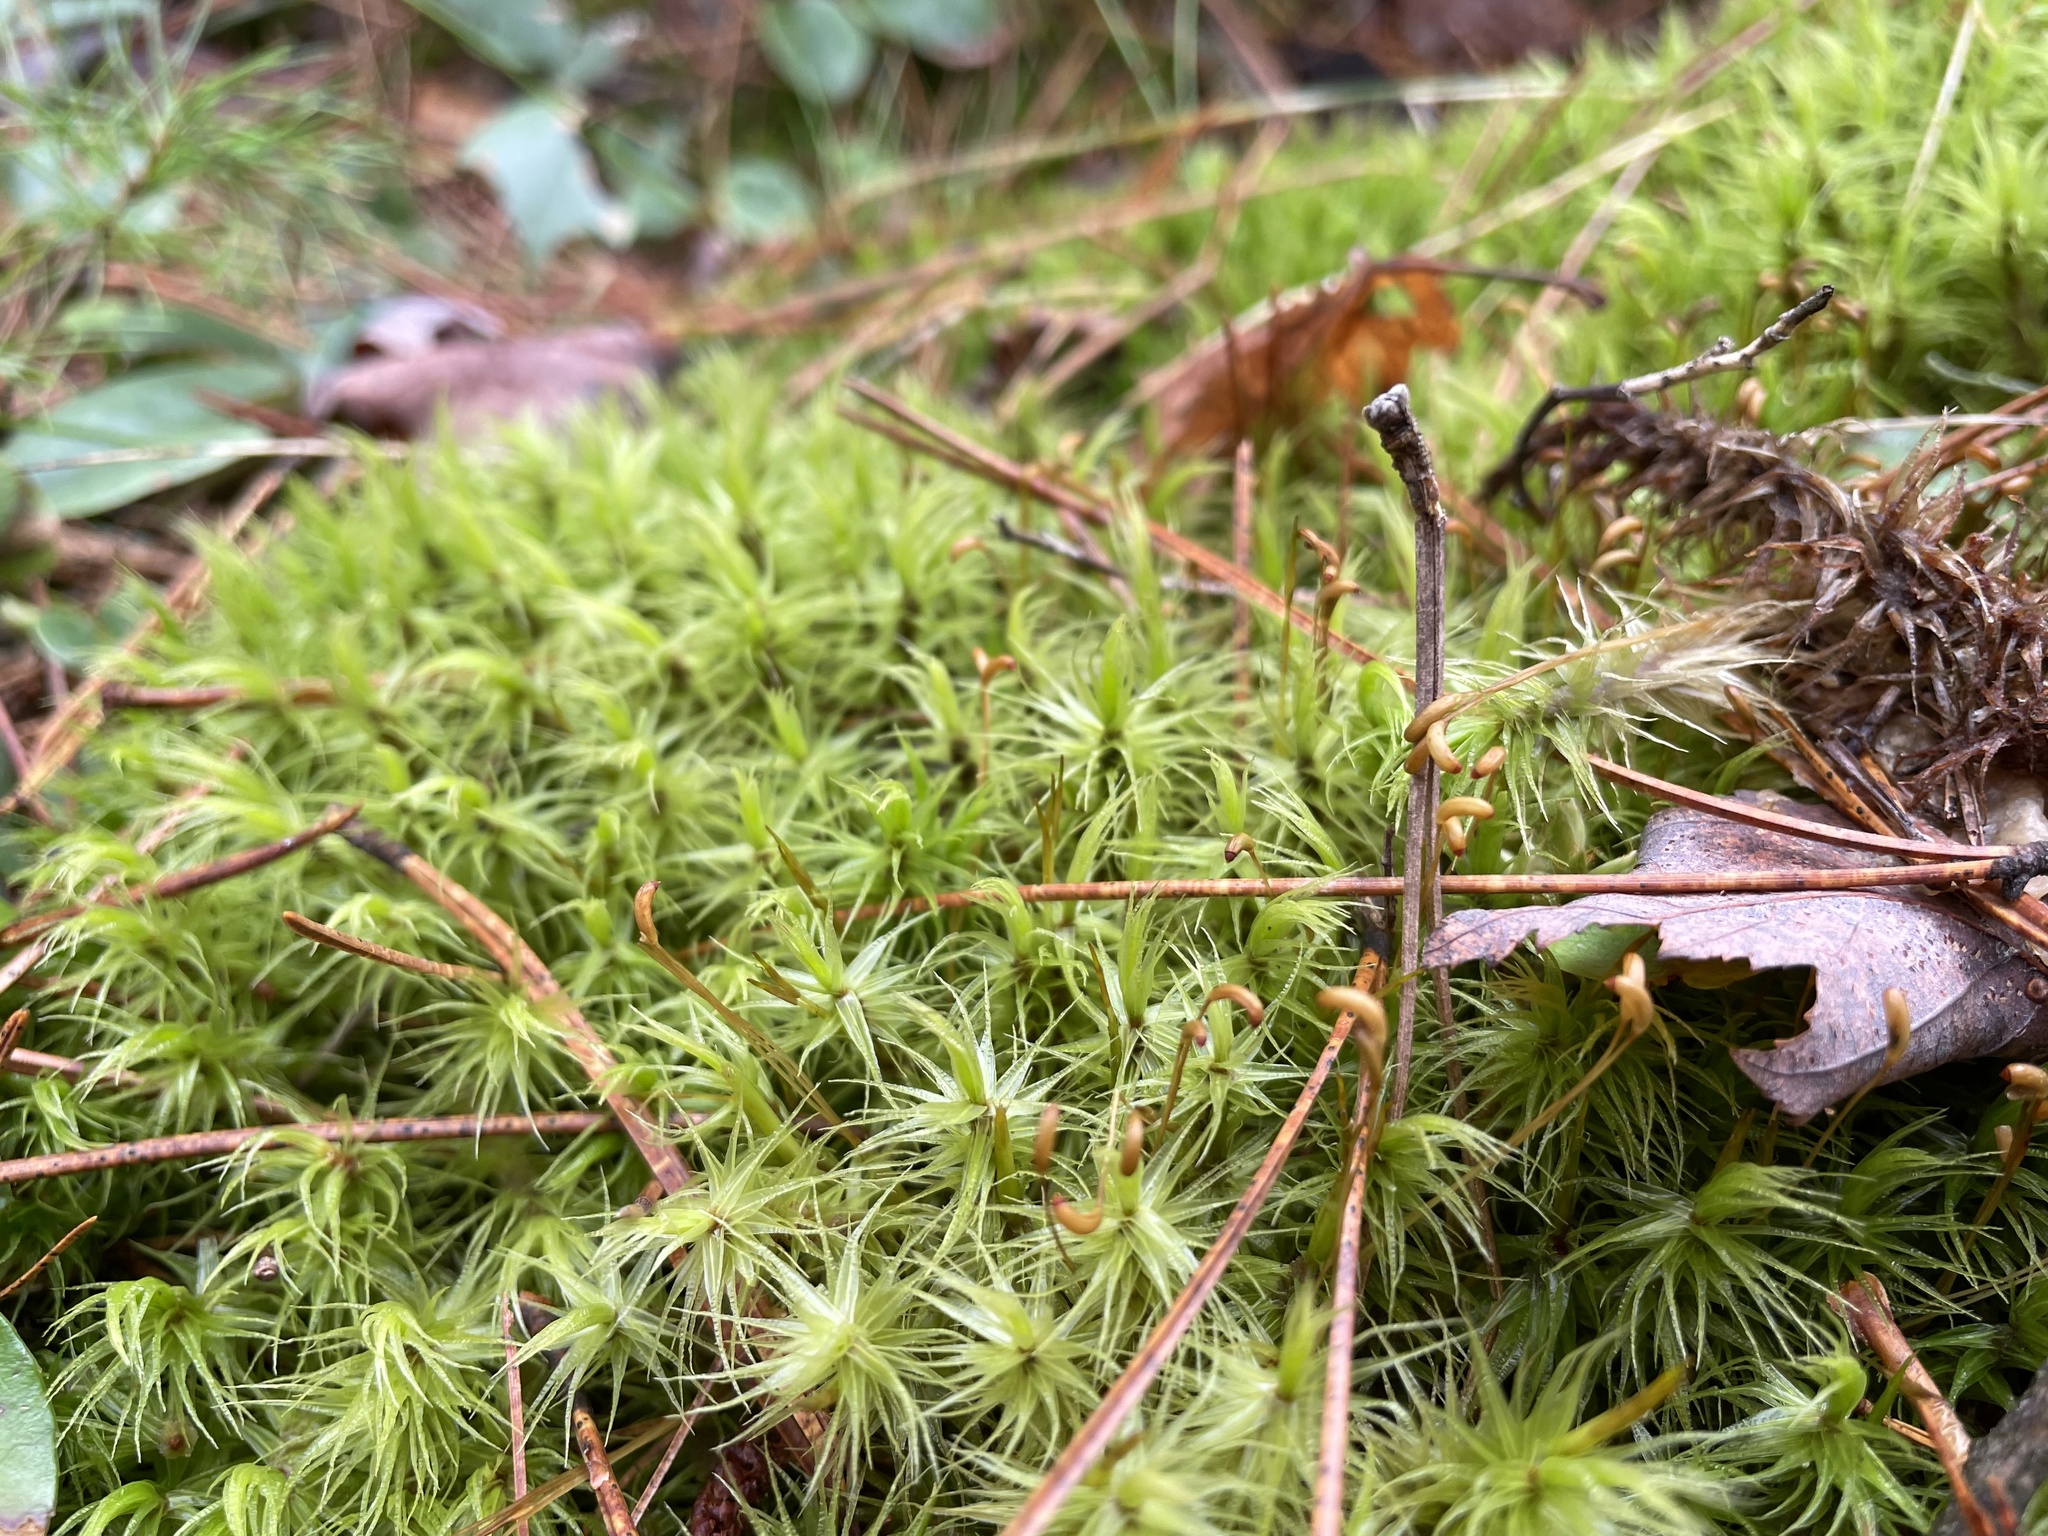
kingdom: Plantae
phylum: Bryophyta
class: Bryopsida
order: Dicranales
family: Dicranaceae
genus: Dicranum
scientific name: Dicranum polysetum
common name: Rugose fork-moss
